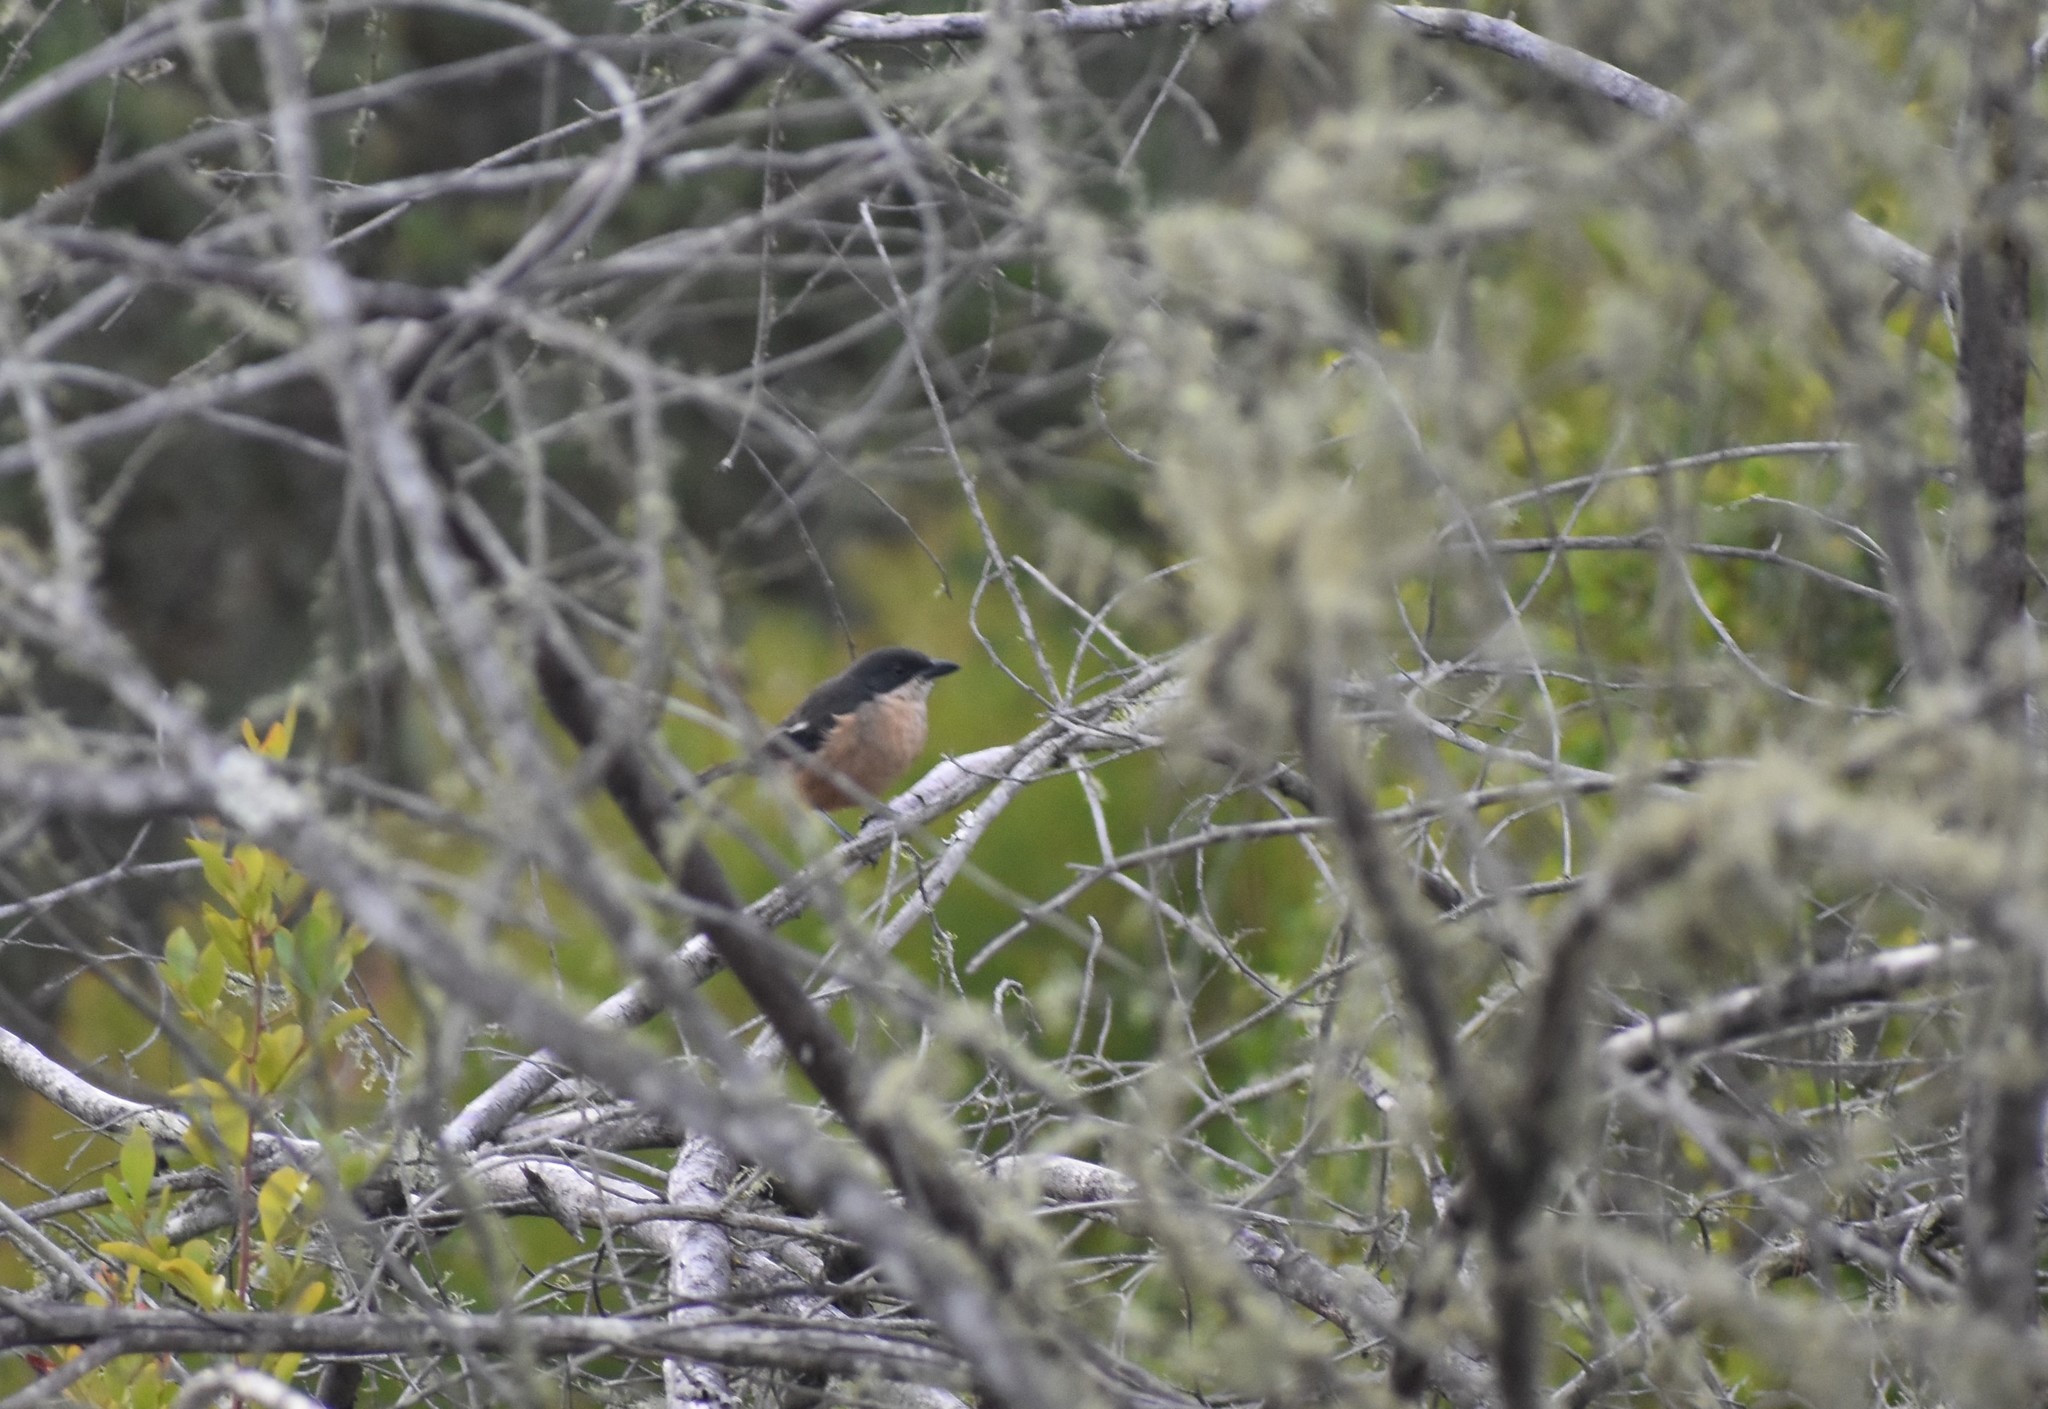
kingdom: Animalia
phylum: Chordata
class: Aves
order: Passeriformes
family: Malaconotidae
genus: Laniarius
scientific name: Laniarius ferrugineus
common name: Southern boubou
